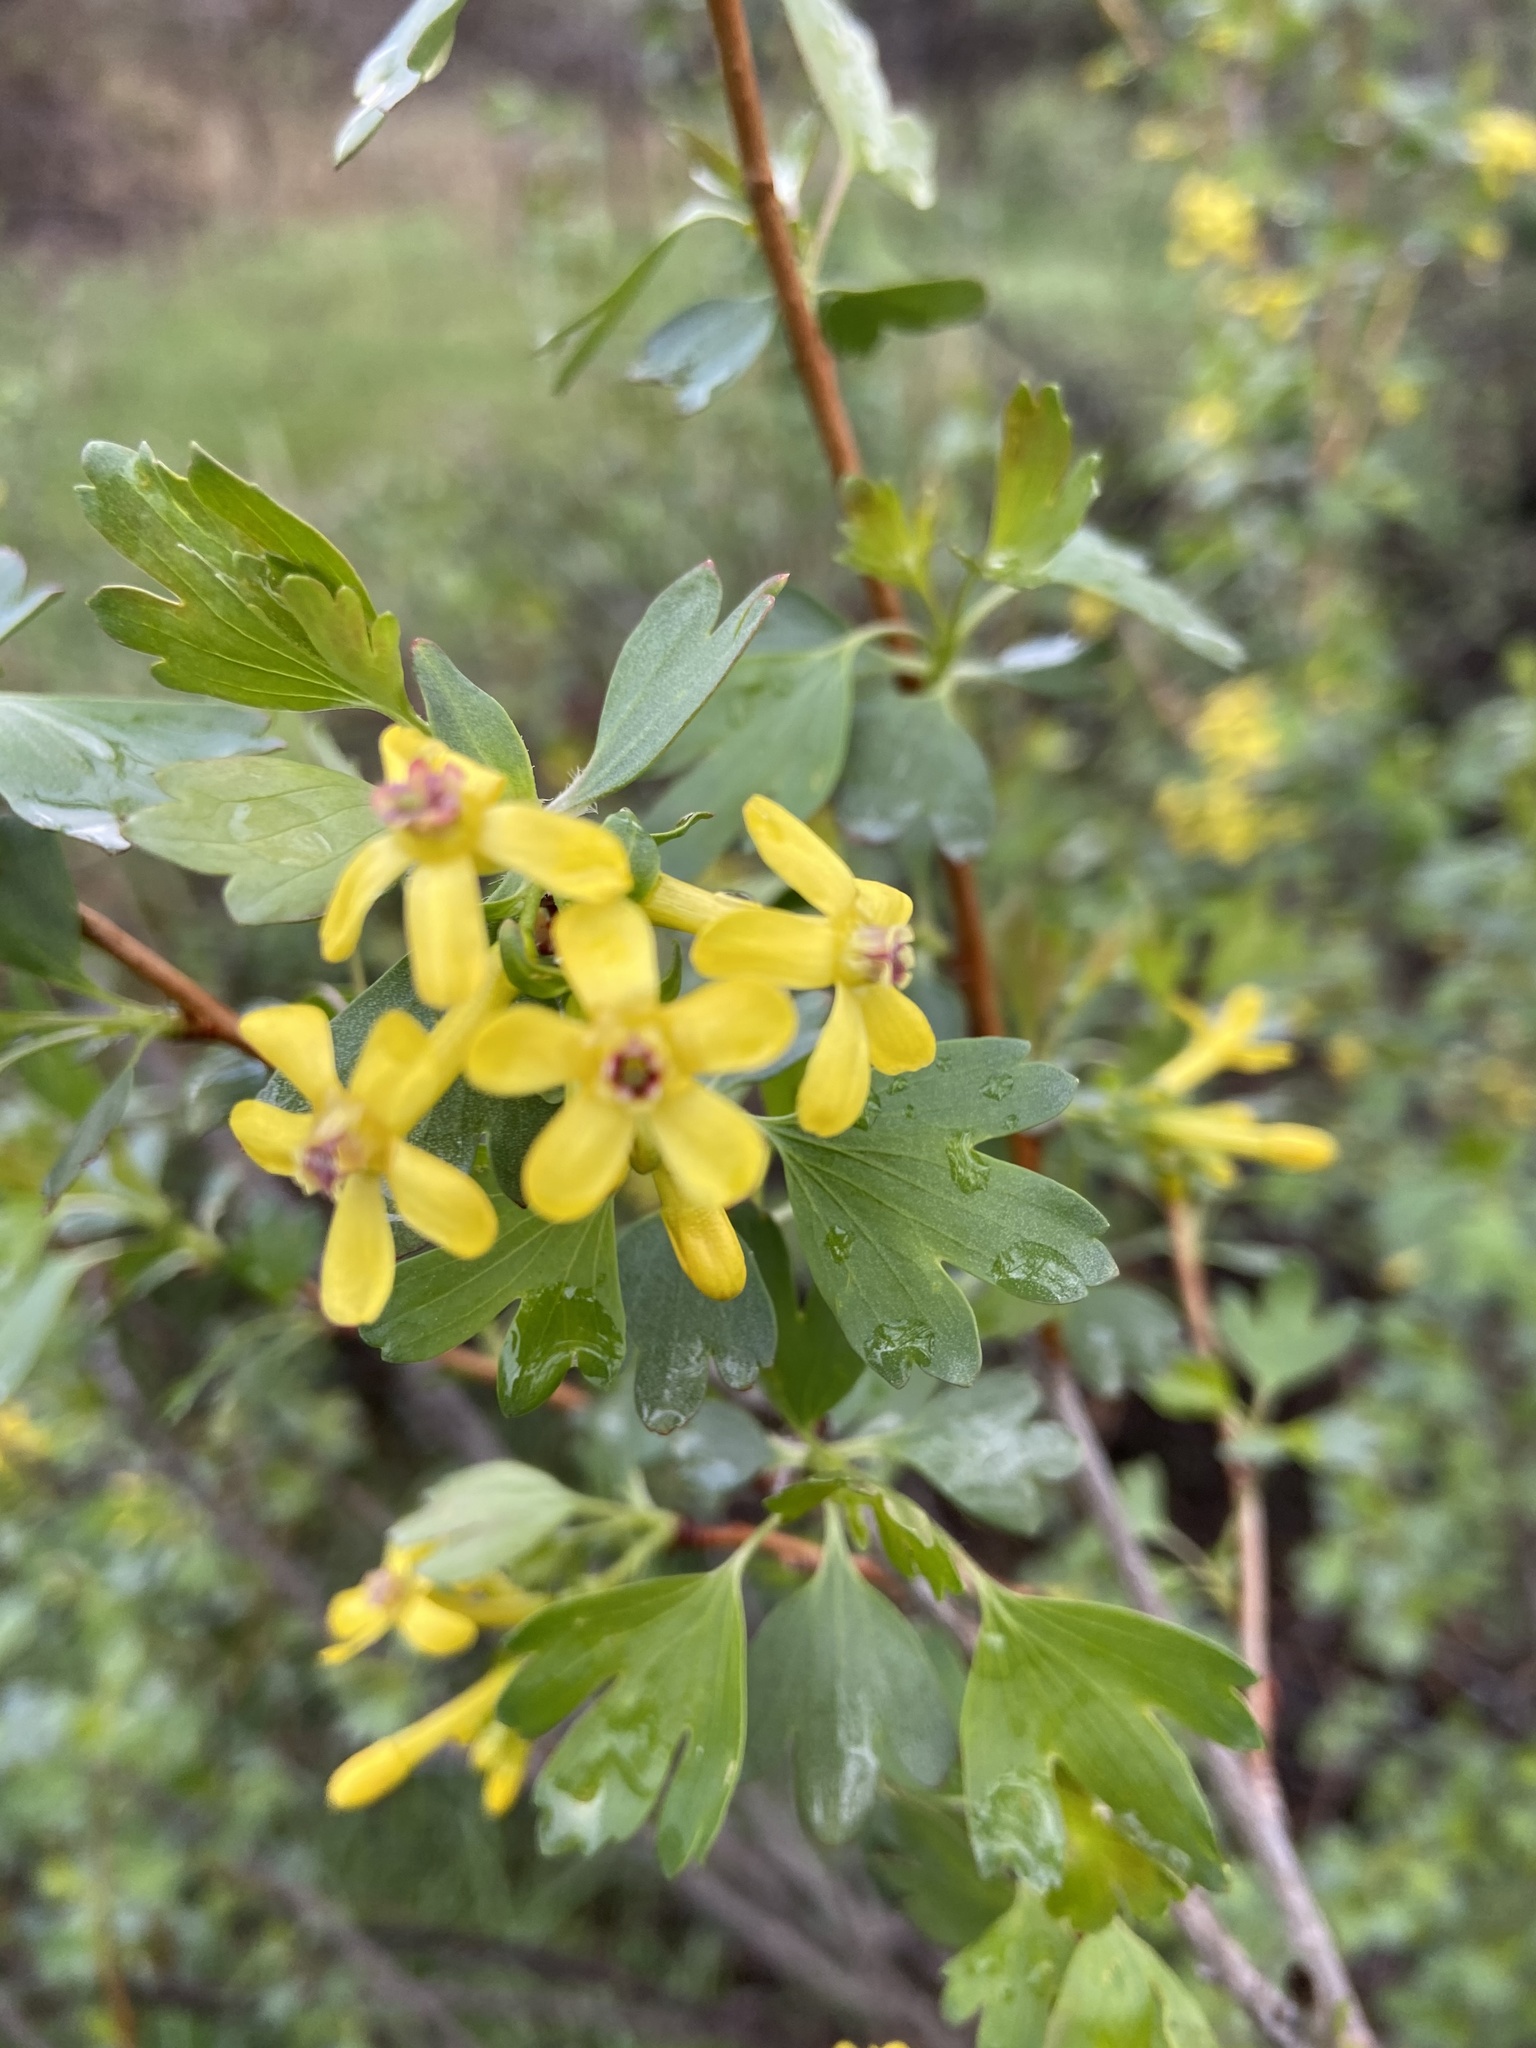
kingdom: Plantae
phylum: Tracheophyta
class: Magnoliopsida
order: Saxifragales
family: Grossulariaceae
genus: Ribes
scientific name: Ribes aureum
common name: Golden currant
